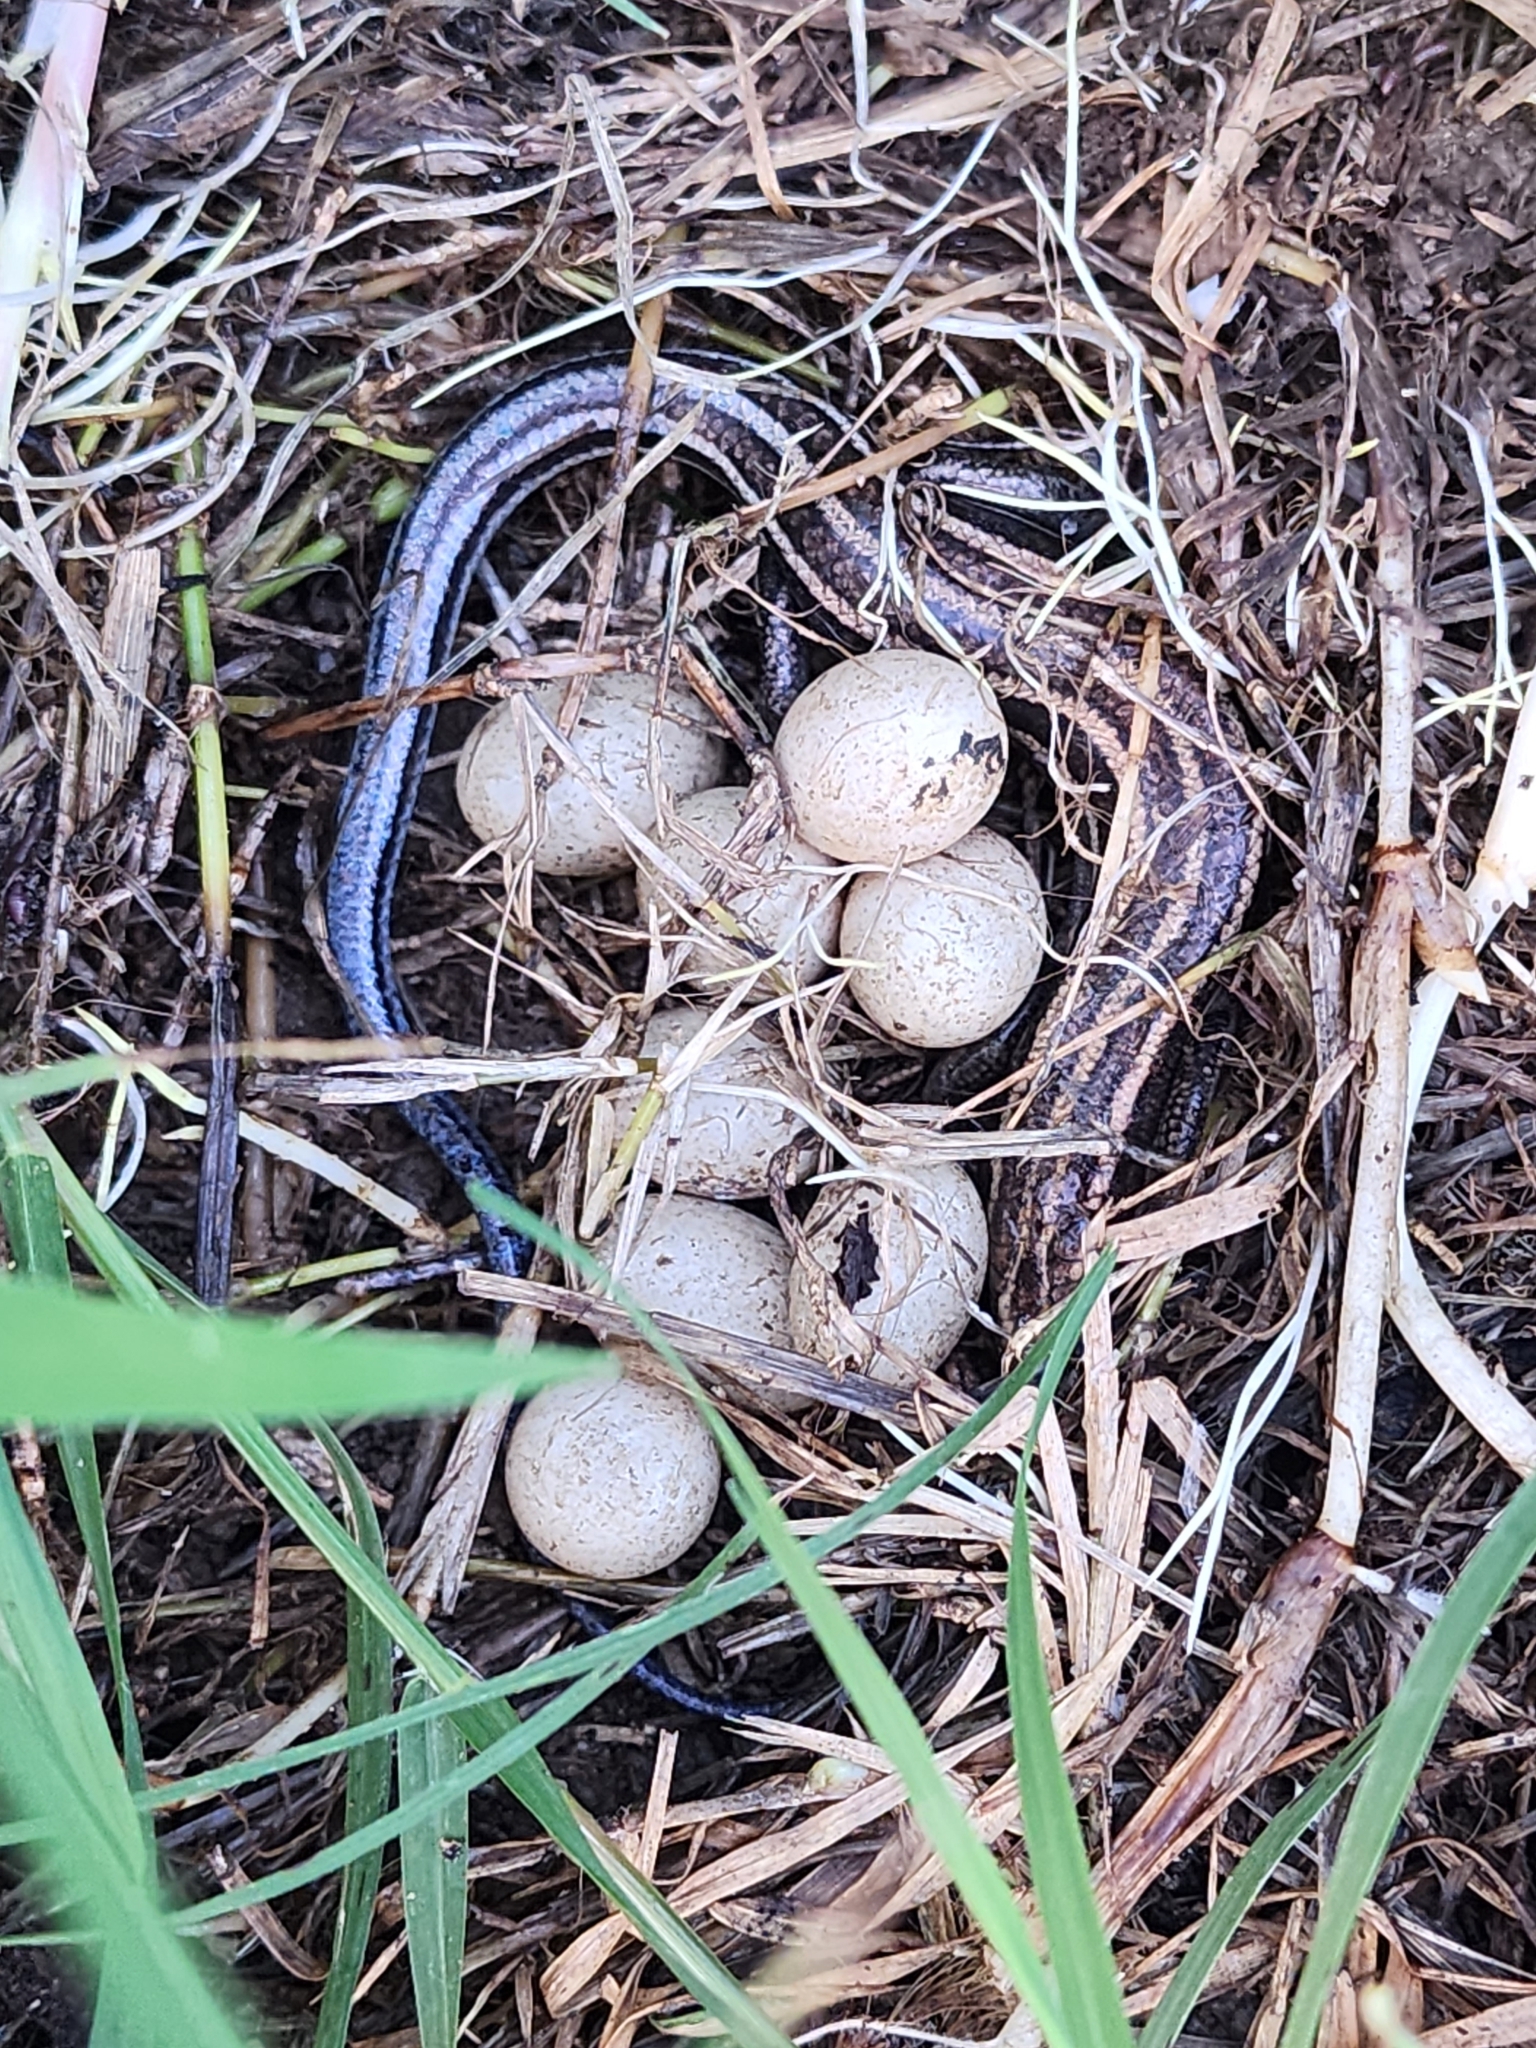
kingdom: Animalia
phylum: Chordata
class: Squamata
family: Scincidae
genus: Plestiodon
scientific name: Plestiodon fasciatus
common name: Five-lined skink
